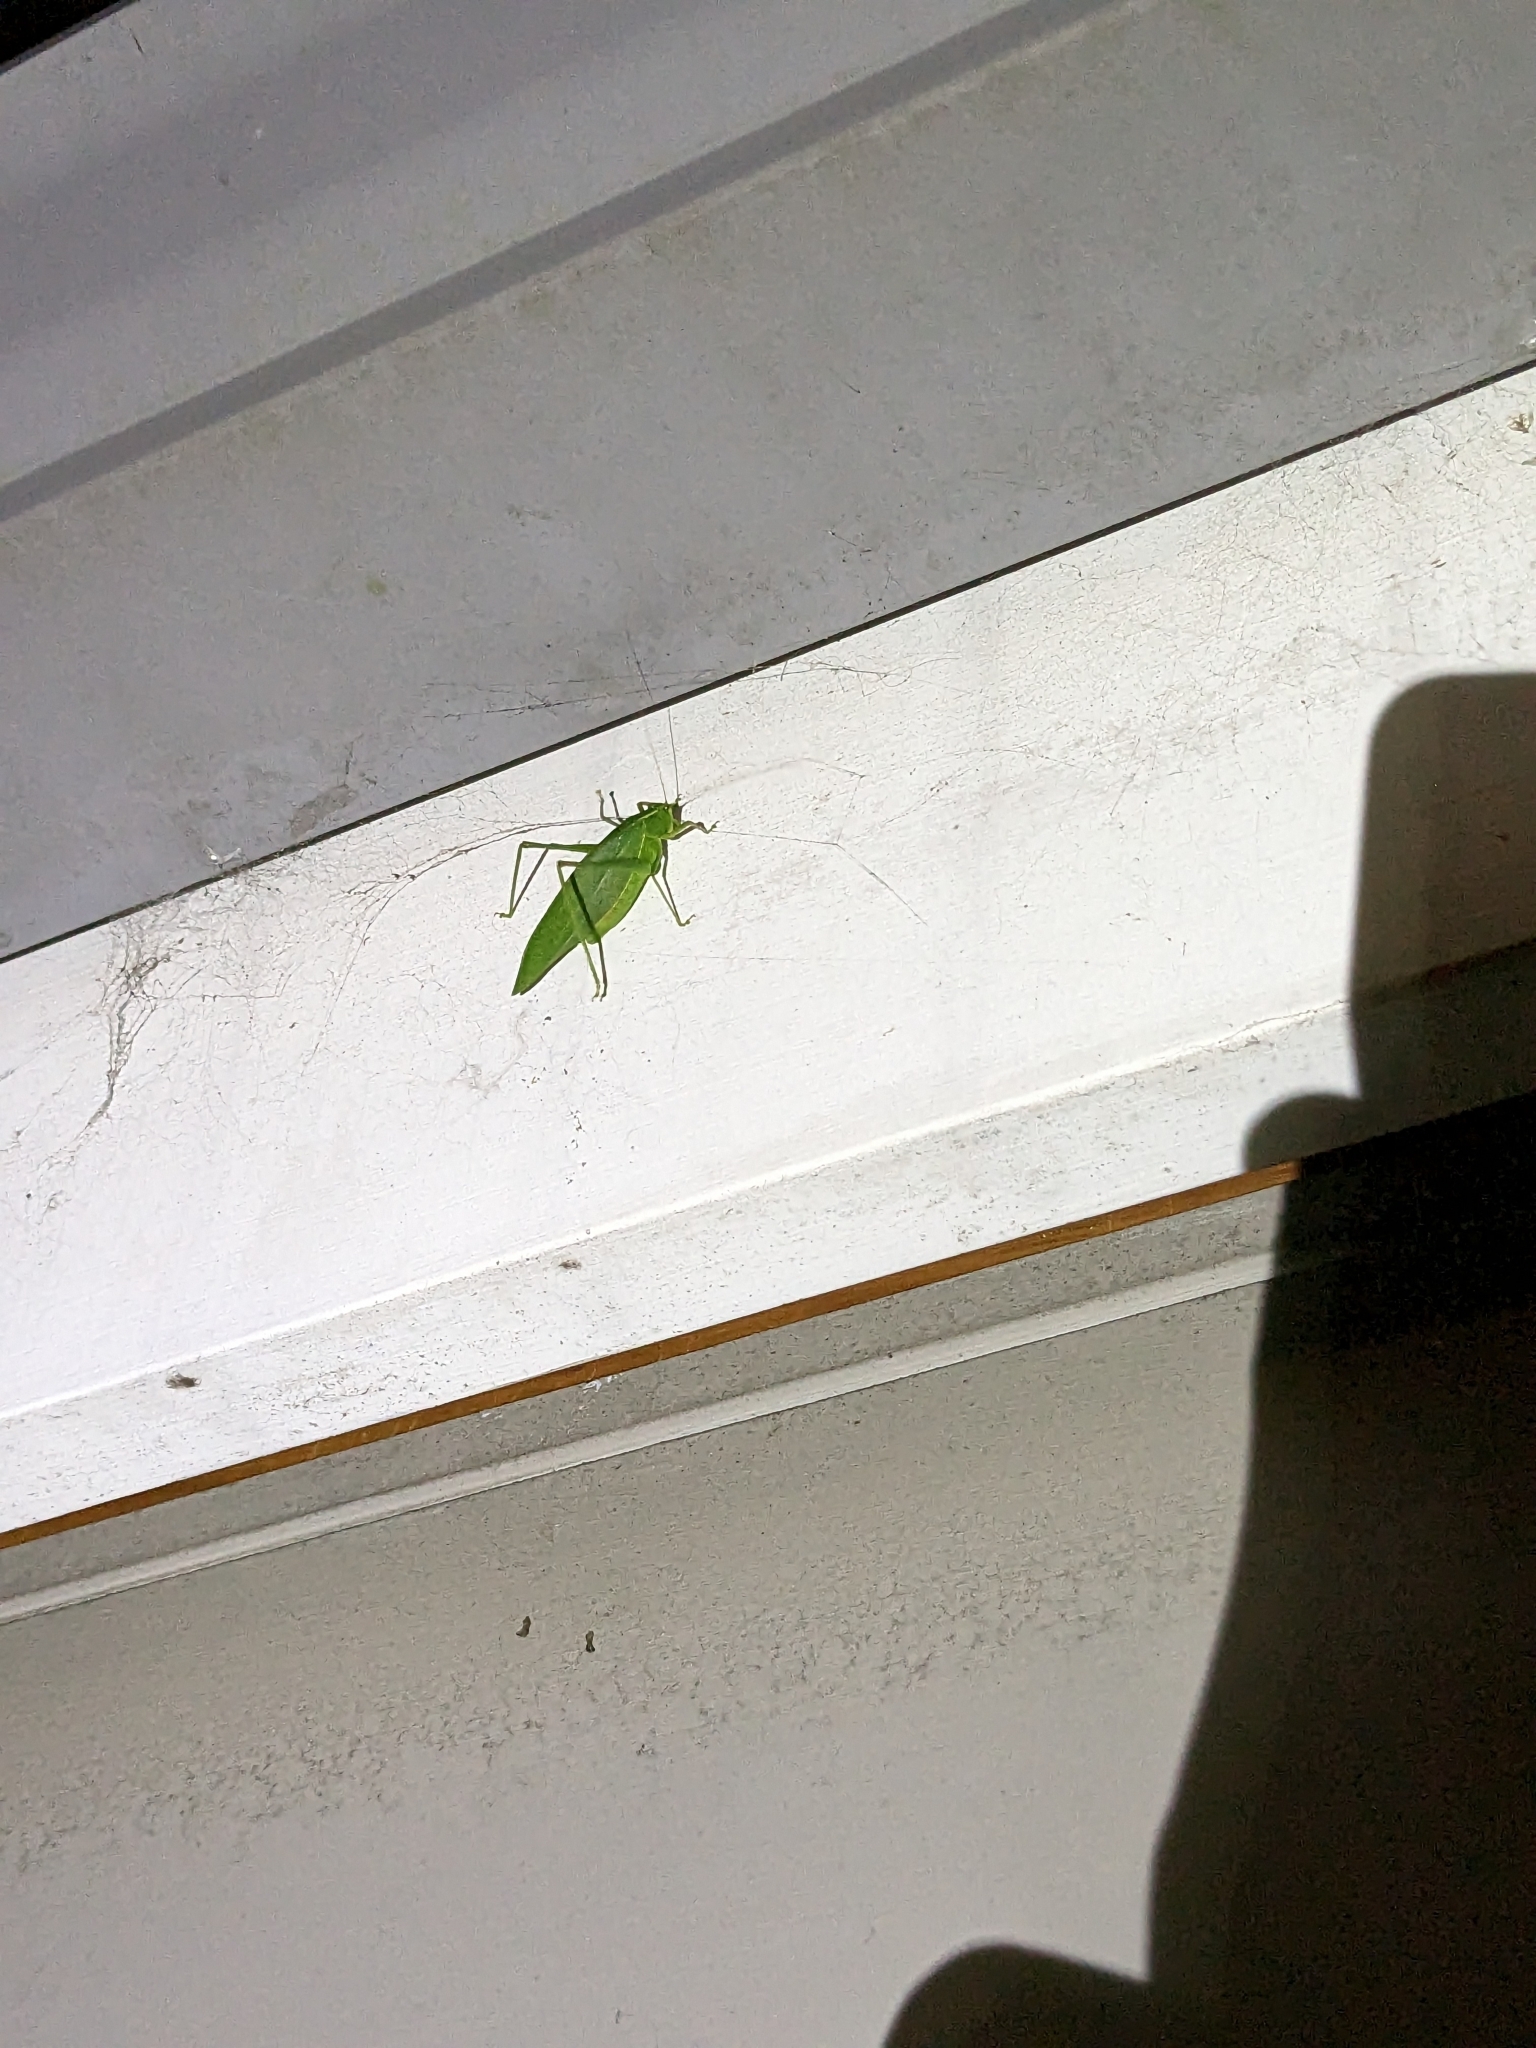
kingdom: Animalia
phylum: Arthropoda
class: Insecta
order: Orthoptera
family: Tettigoniidae
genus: Caedicia
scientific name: Caedicia simplex
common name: Common garden katydid
